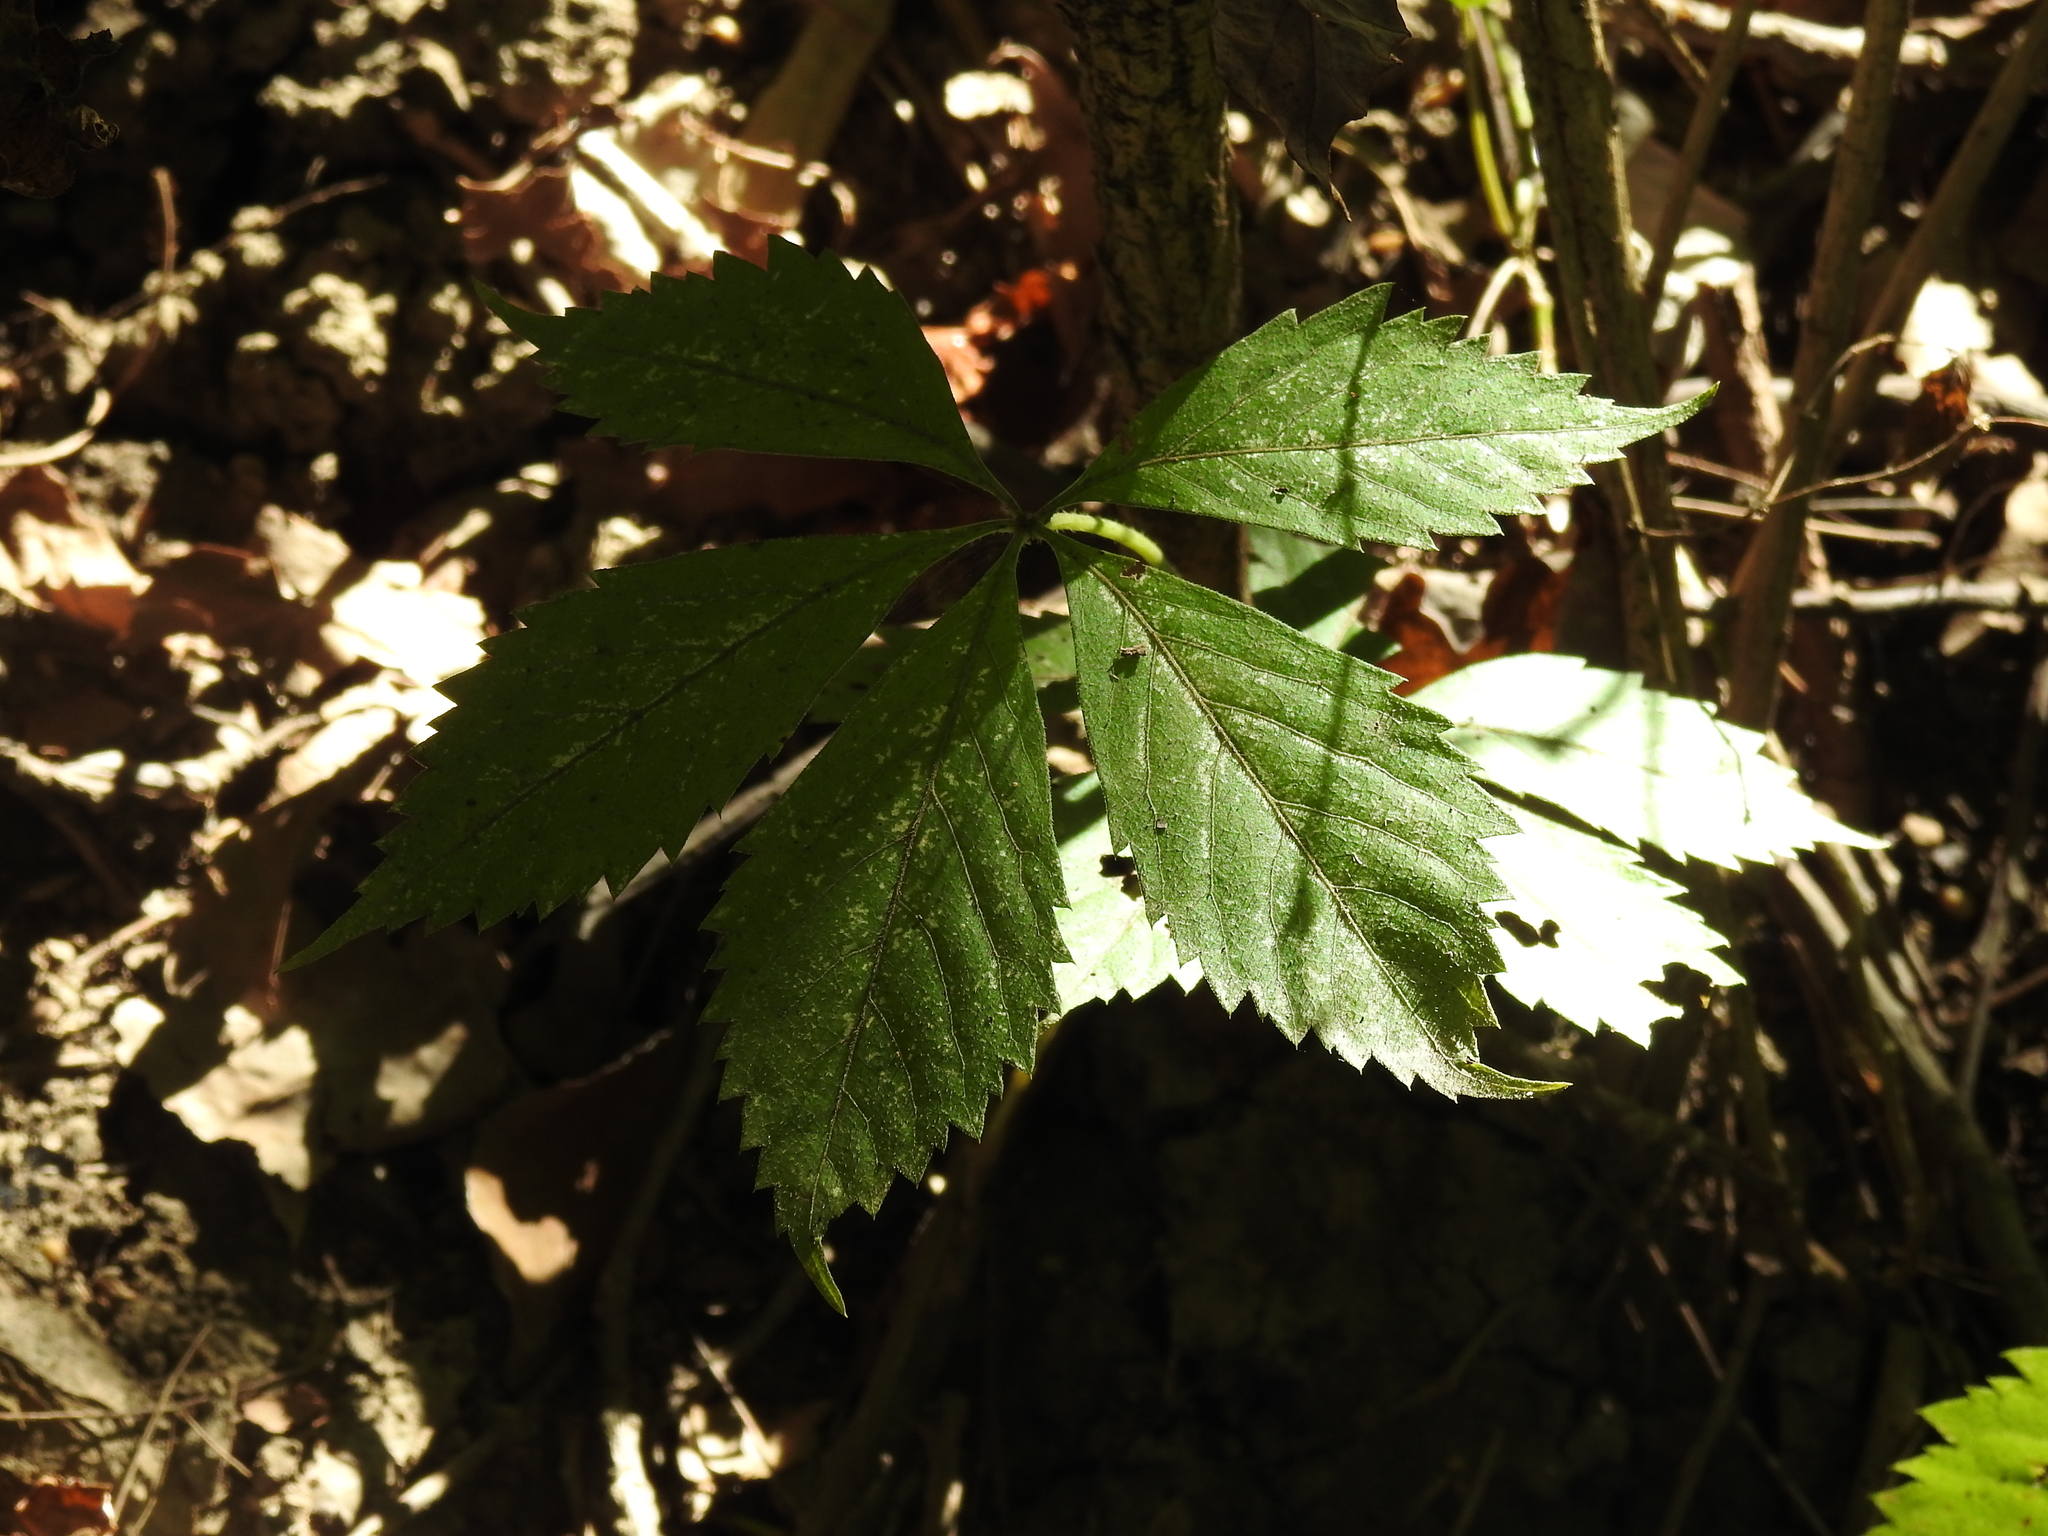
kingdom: Plantae
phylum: Tracheophyta
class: Magnoliopsida
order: Vitales
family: Vitaceae
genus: Parthenocissus
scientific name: Parthenocissus quinquefolia
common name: Virginia-creeper
